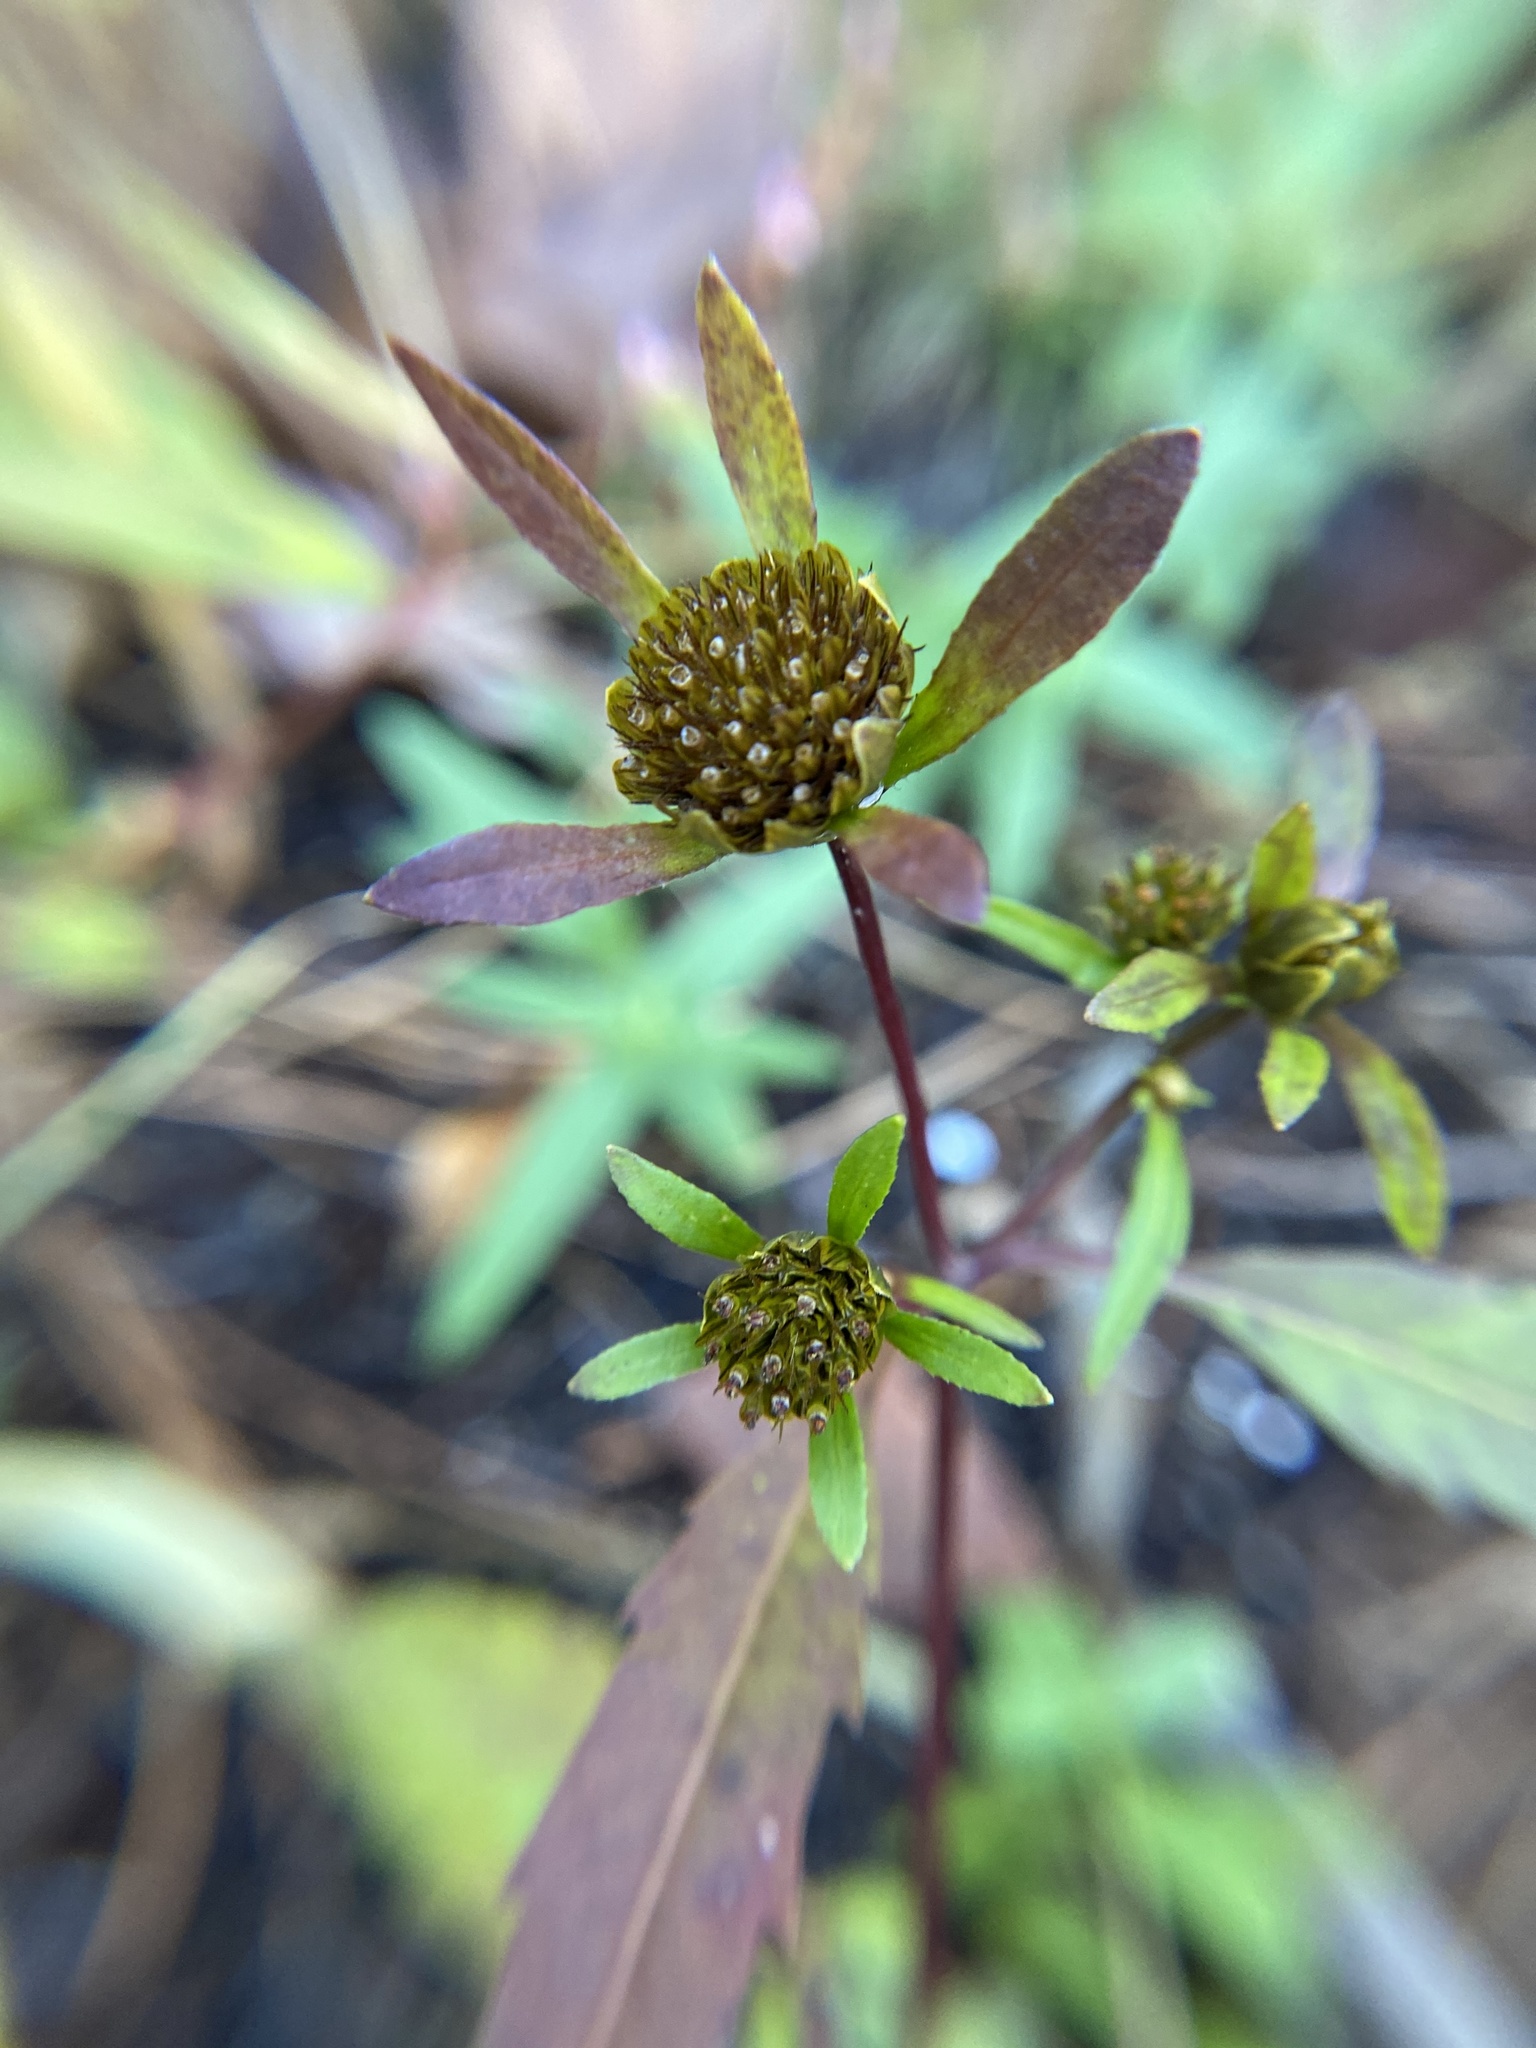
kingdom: Plantae
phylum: Tracheophyta
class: Magnoliopsida
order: Asterales
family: Asteraceae
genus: Bidens
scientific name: Bidens connata
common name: London bur-marigold
